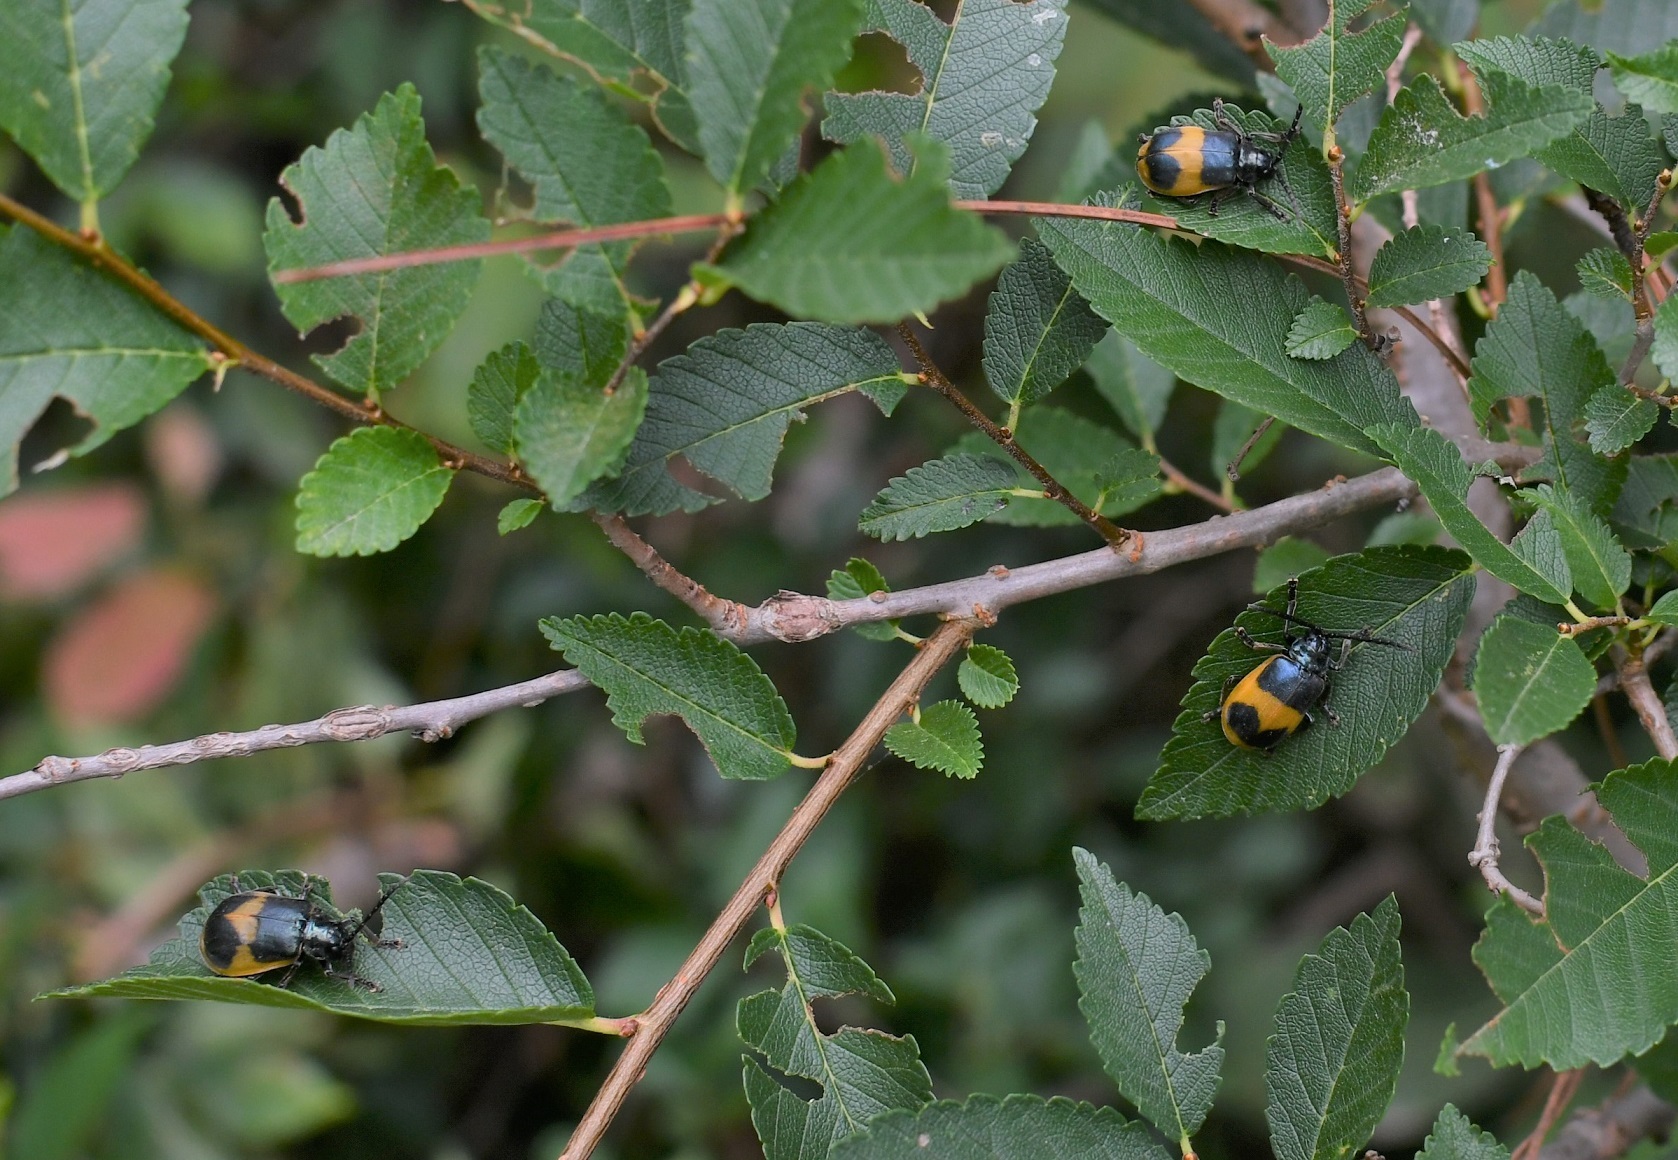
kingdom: Animalia
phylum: Arthropoda
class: Insecta
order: Coleoptera
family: Chrysomelidae
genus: Monocesta
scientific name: Monocesta
